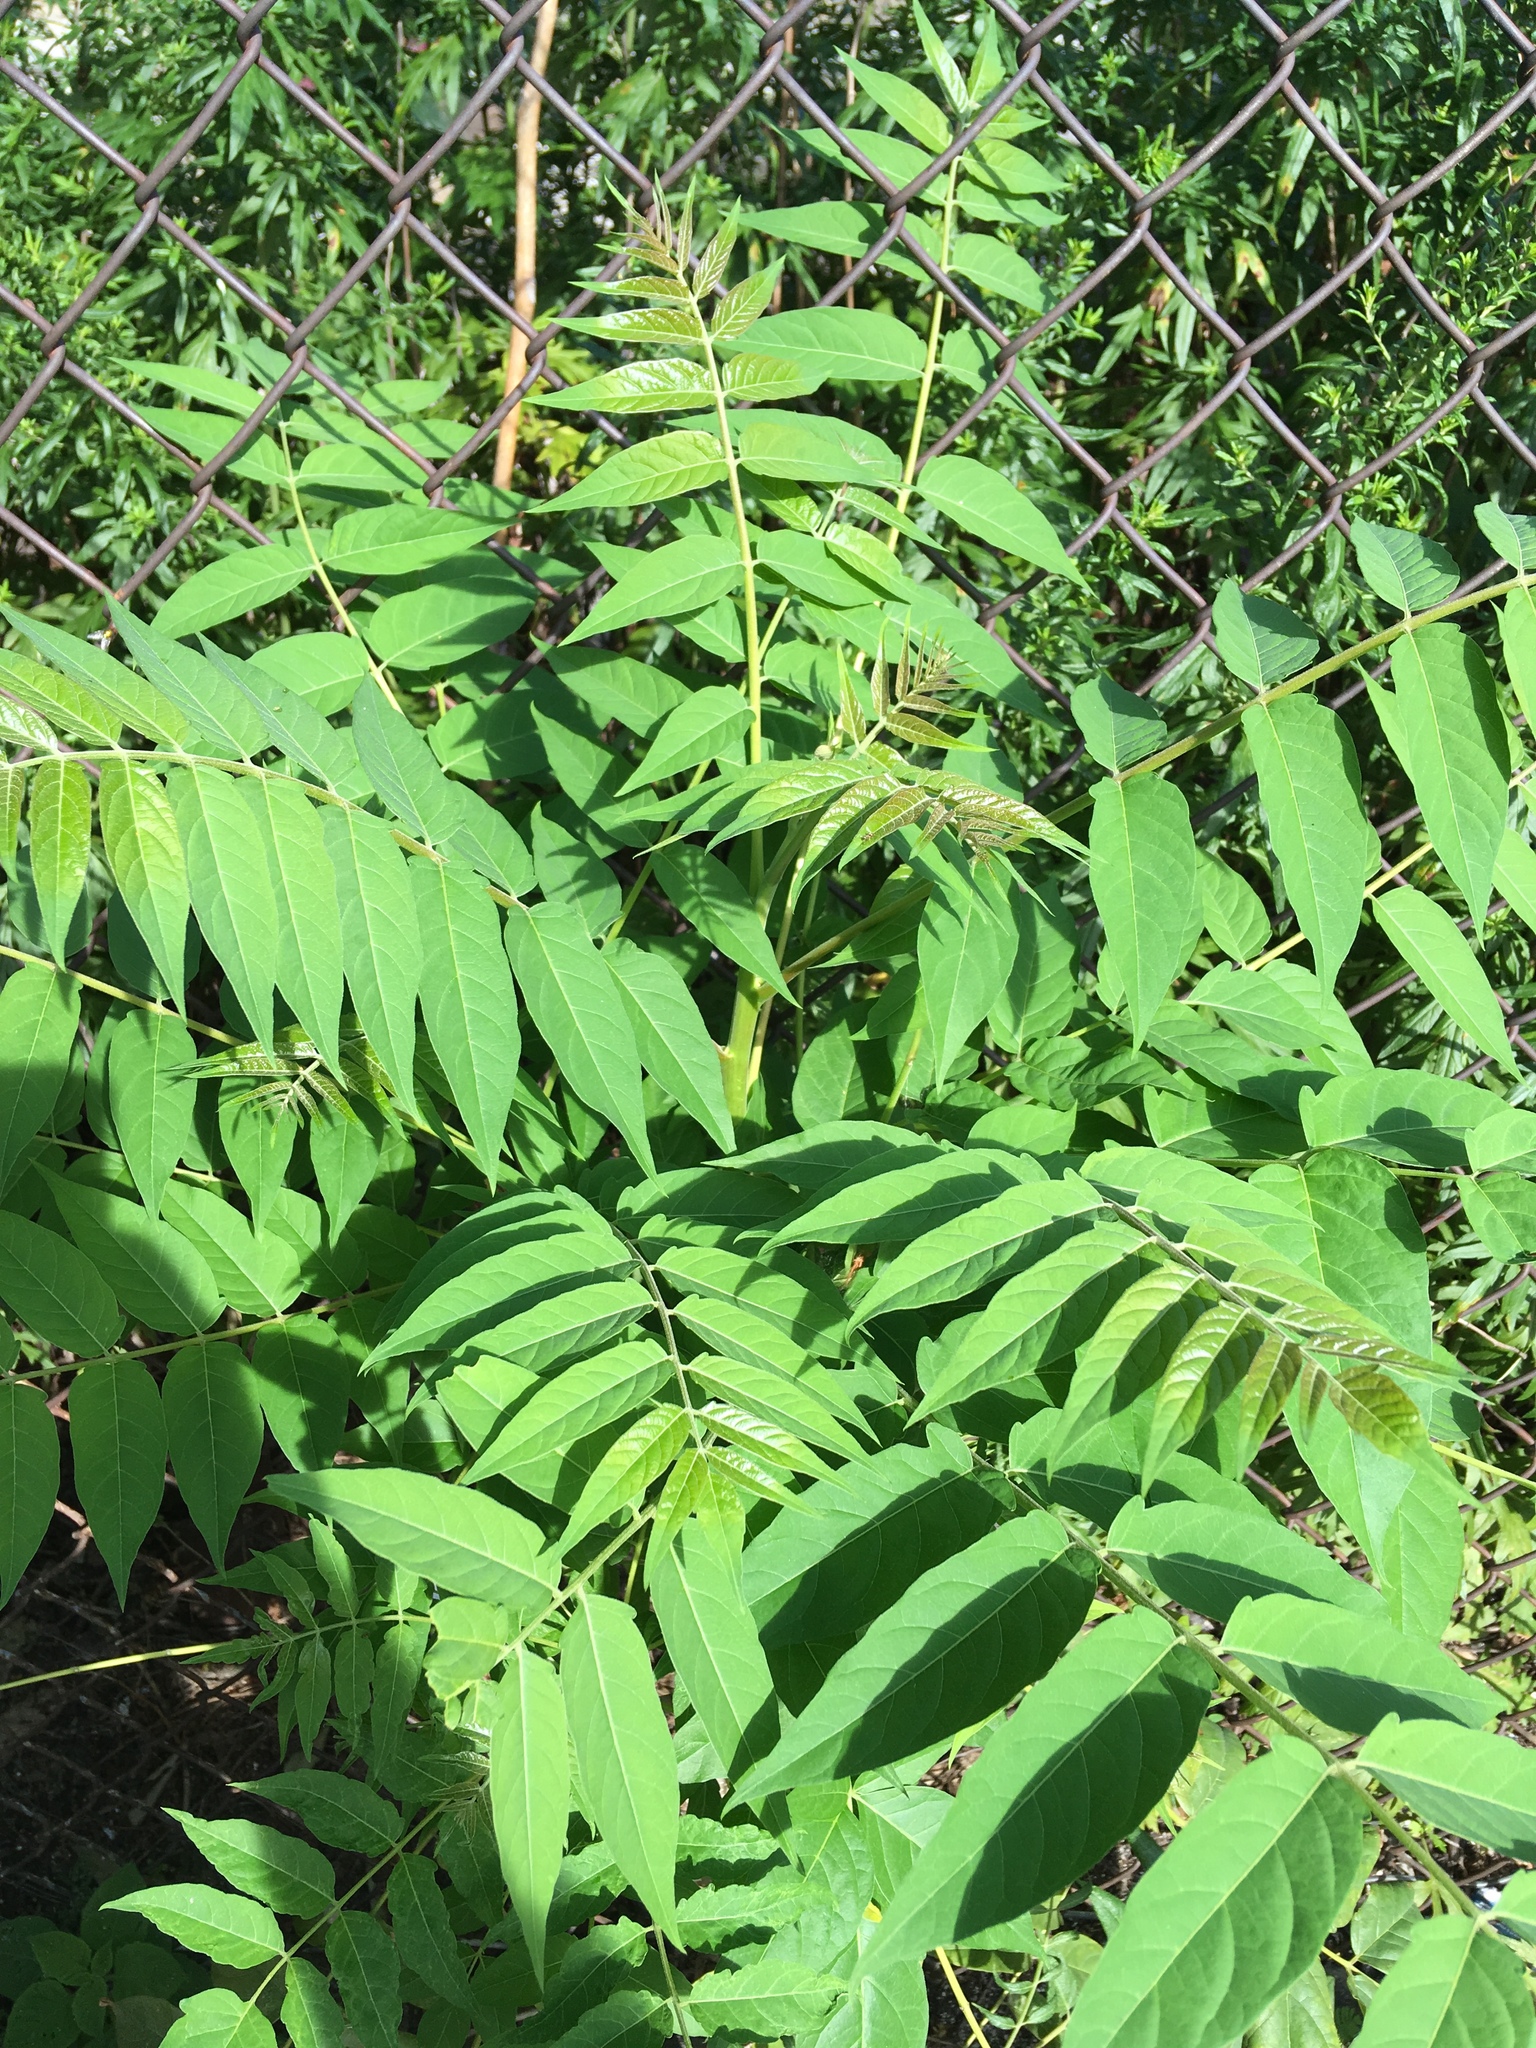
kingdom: Plantae
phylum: Tracheophyta
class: Magnoliopsida
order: Sapindales
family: Simaroubaceae
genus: Ailanthus
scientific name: Ailanthus altissima
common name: Tree-of-heaven
